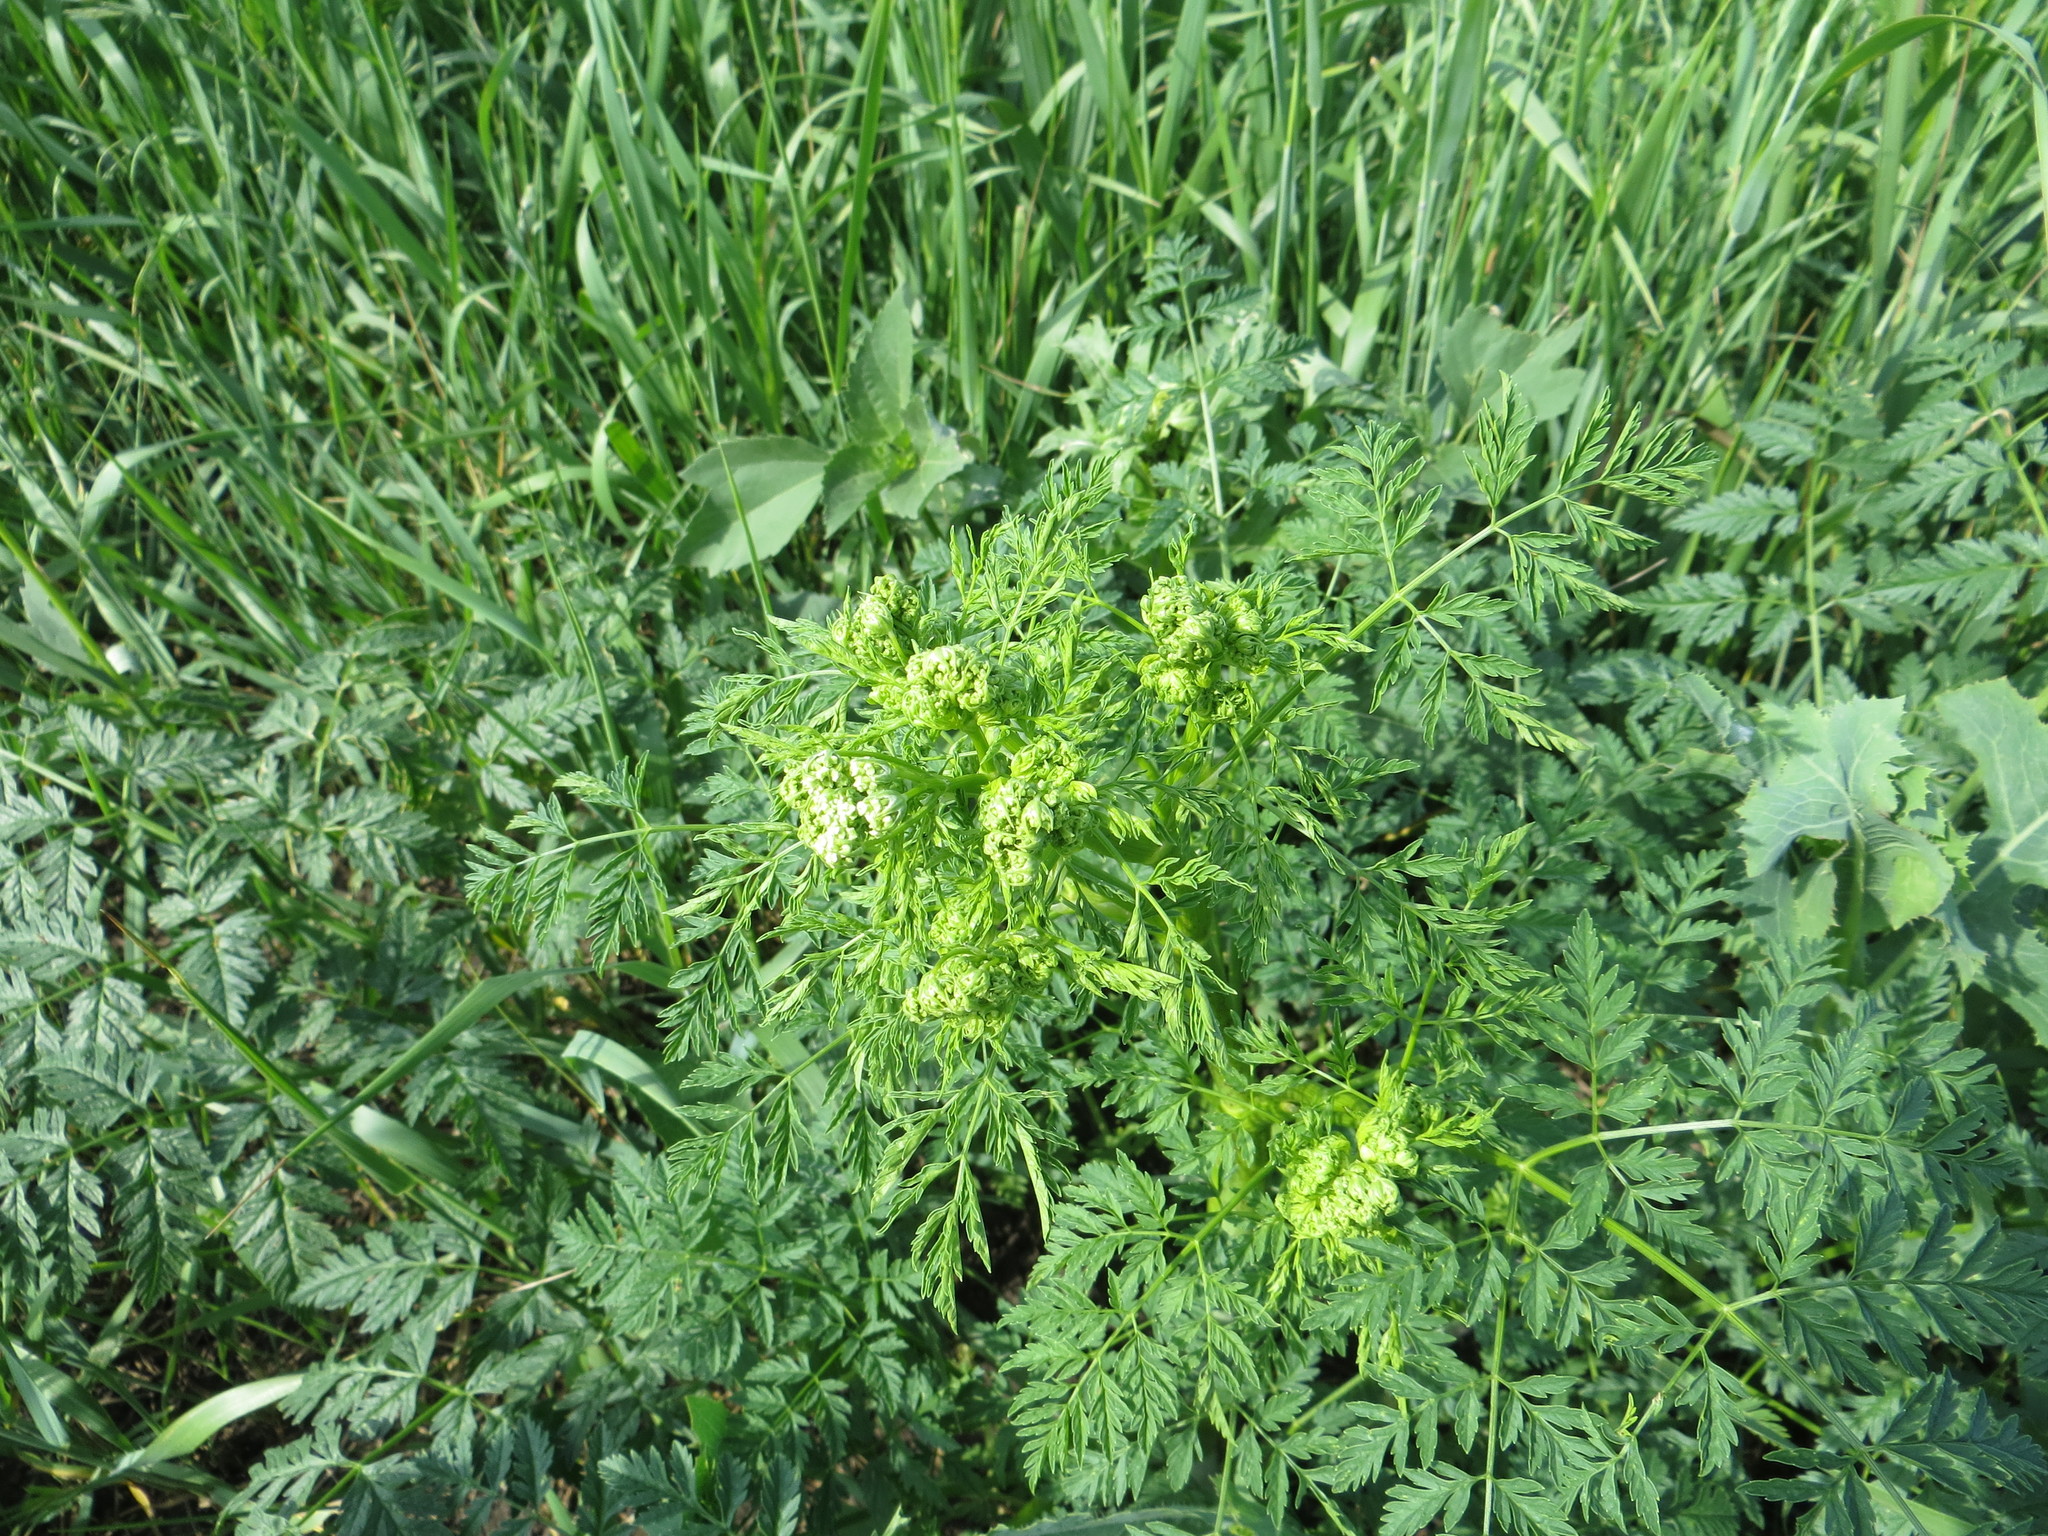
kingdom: Plantae
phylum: Tracheophyta
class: Magnoliopsida
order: Apiales
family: Apiaceae
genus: Conium
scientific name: Conium maculatum
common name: Hemlock
